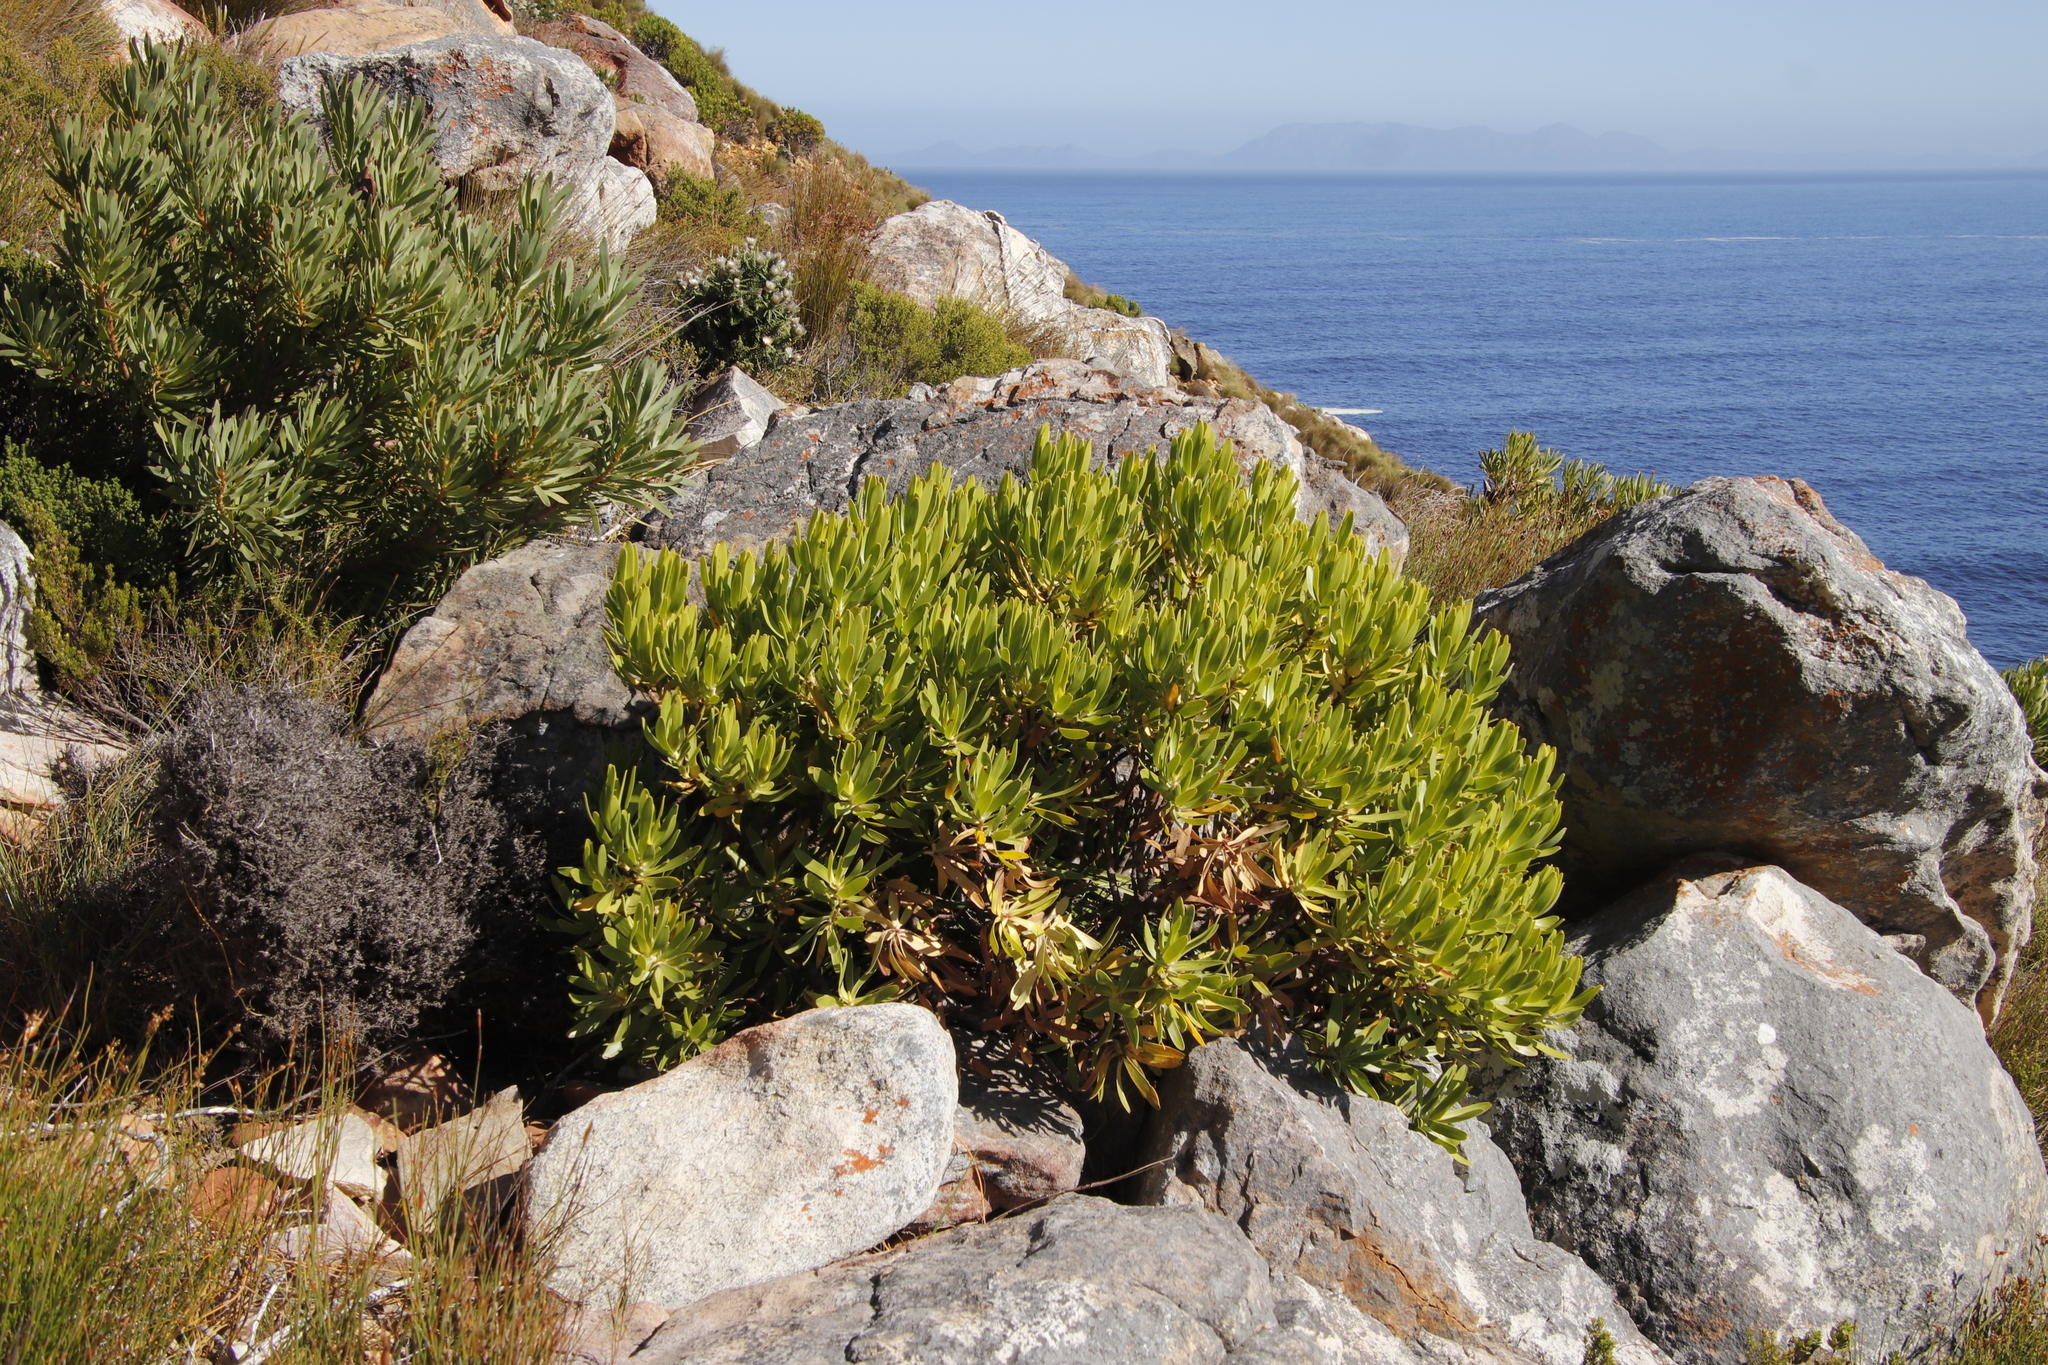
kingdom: Plantae
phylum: Tracheophyta
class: Magnoliopsida
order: Proteales
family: Proteaceae
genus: Leucadendron
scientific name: Leucadendron laureolum
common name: Golden sunshinebush
